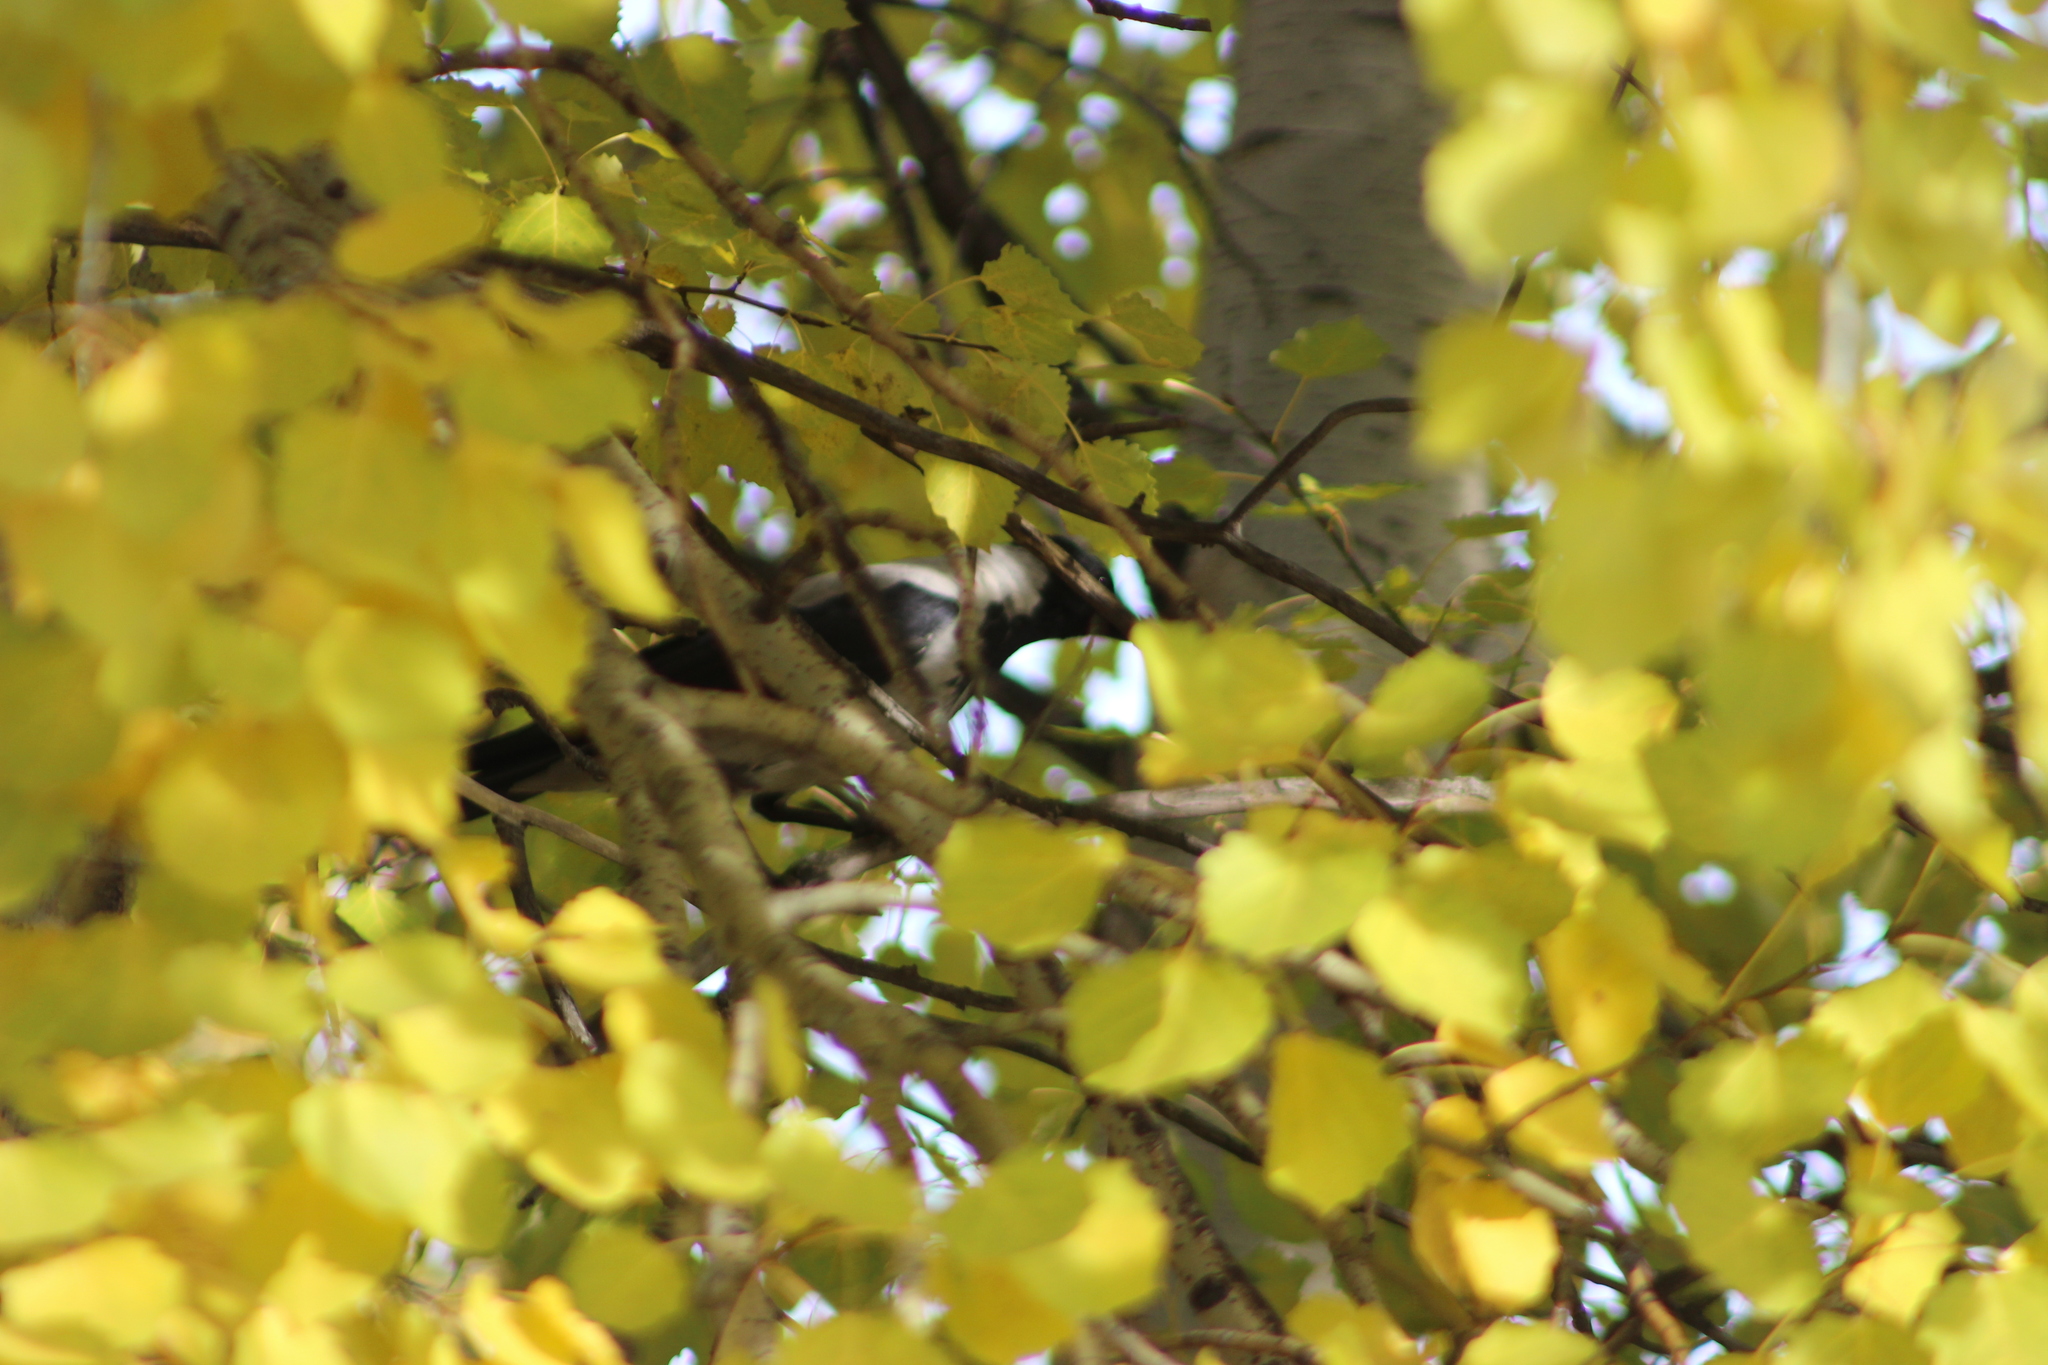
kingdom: Animalia
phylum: Chordata
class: Aves
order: Passeriformes
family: Corvidae
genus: Corvus
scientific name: Corvus cornix
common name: Hooded crow
